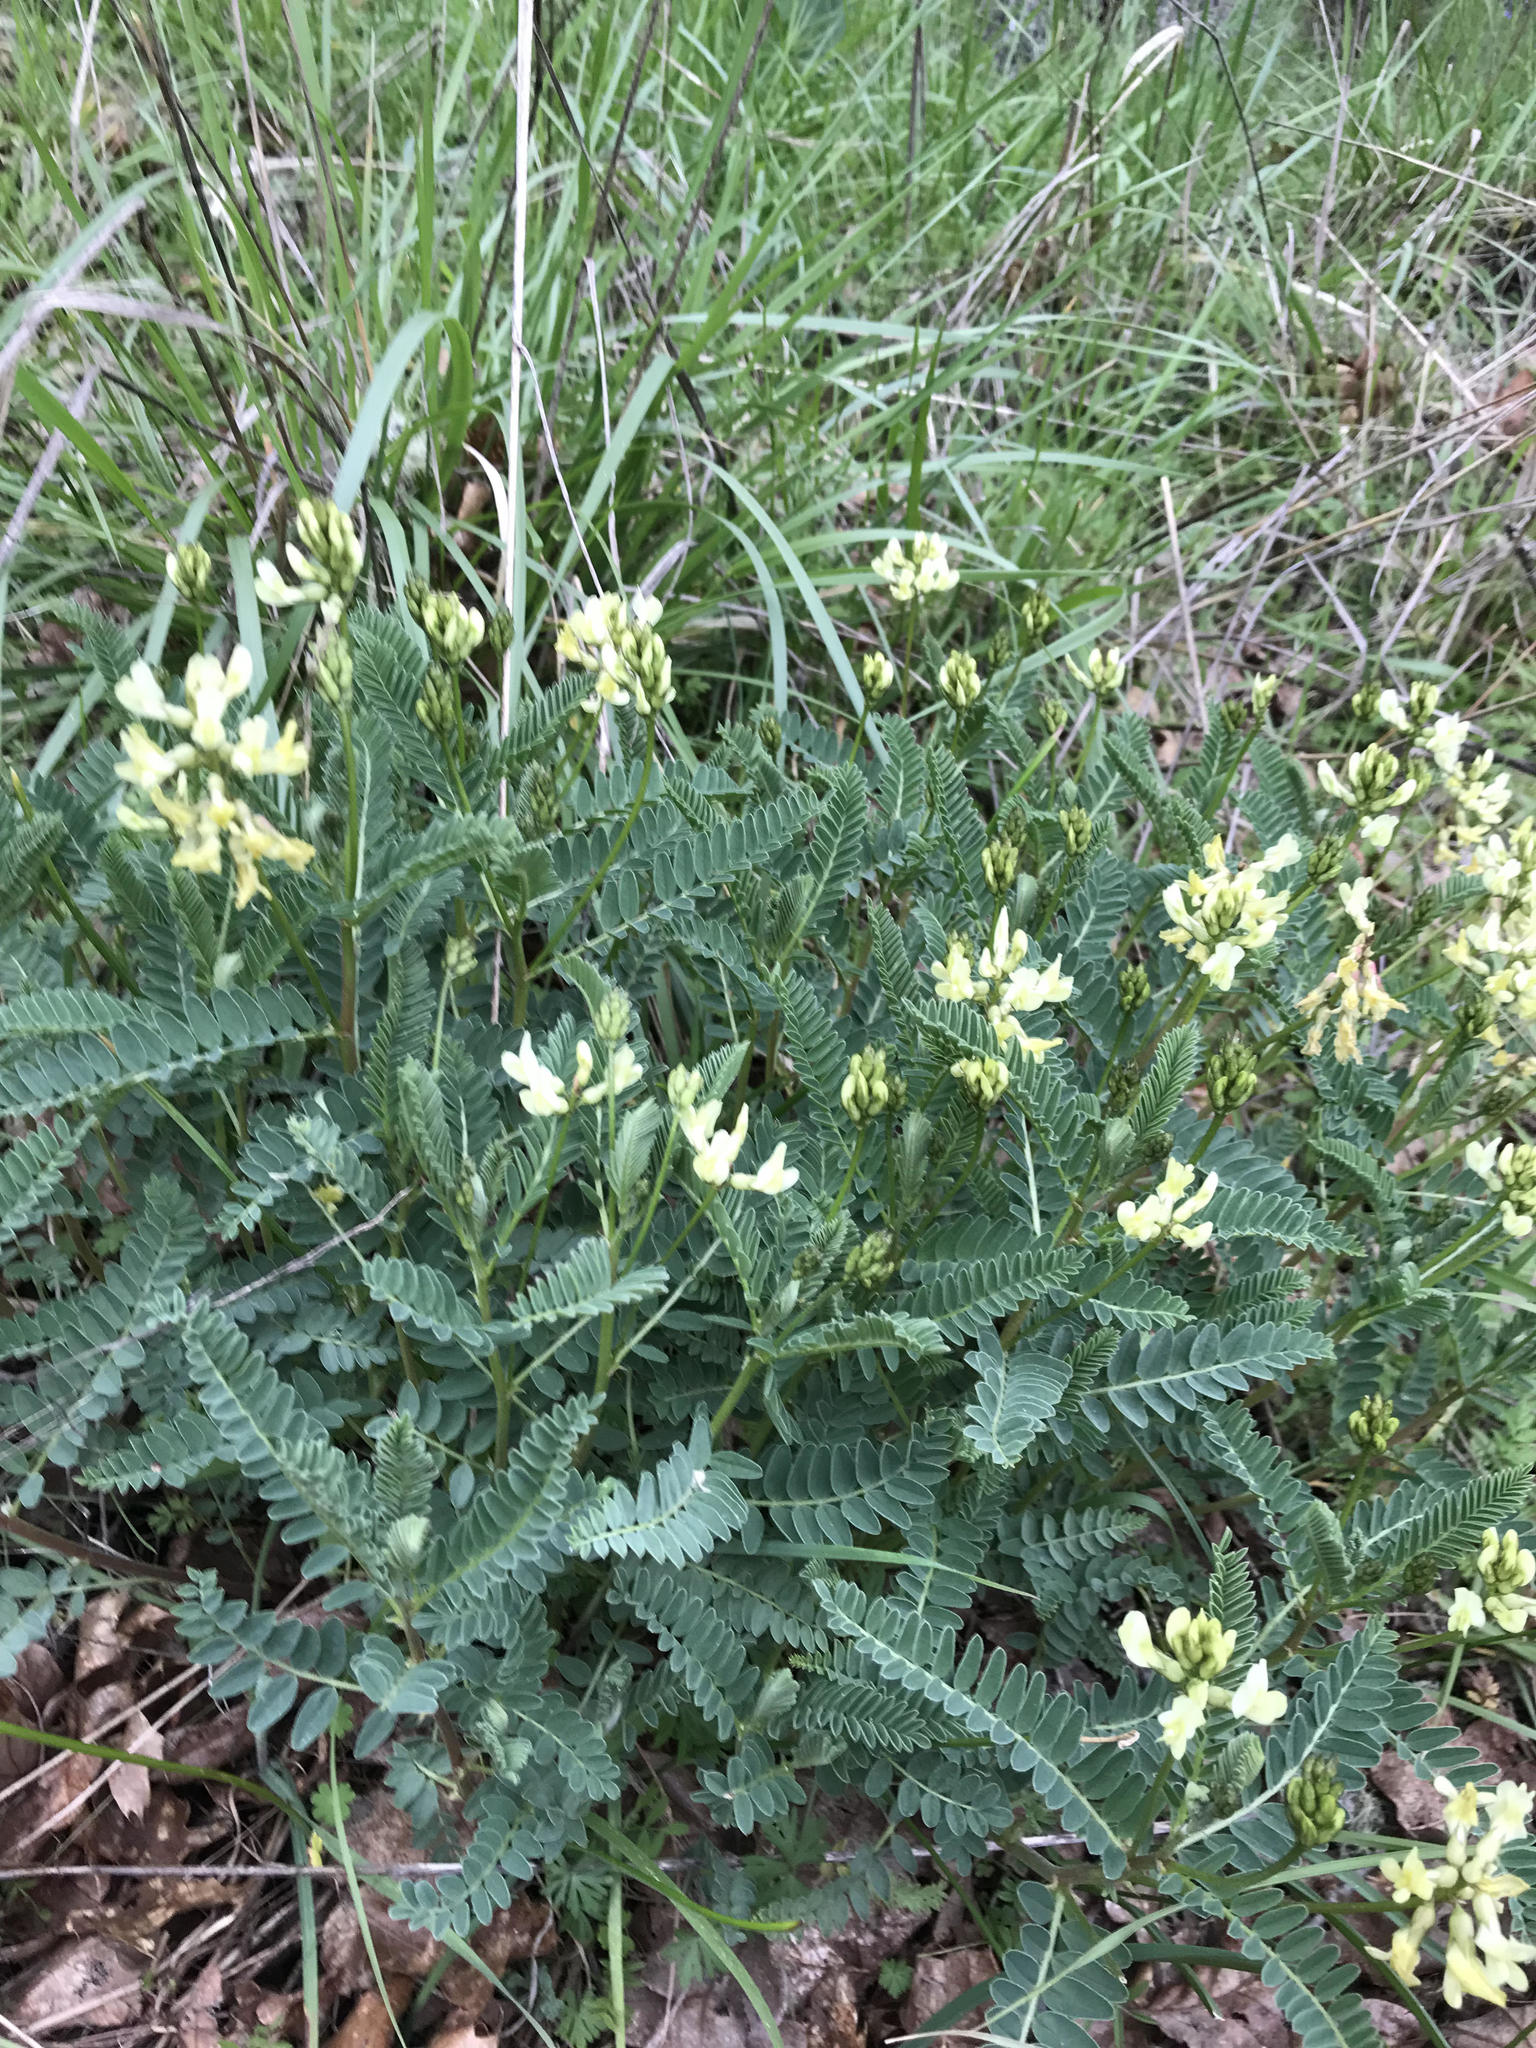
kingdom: Plantae
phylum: Tracheophyta
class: Magnoliopsida
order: Fabales
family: Fabaceae
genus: Astragalus
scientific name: Astragalus accidens
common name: Rogue river milkvetch
